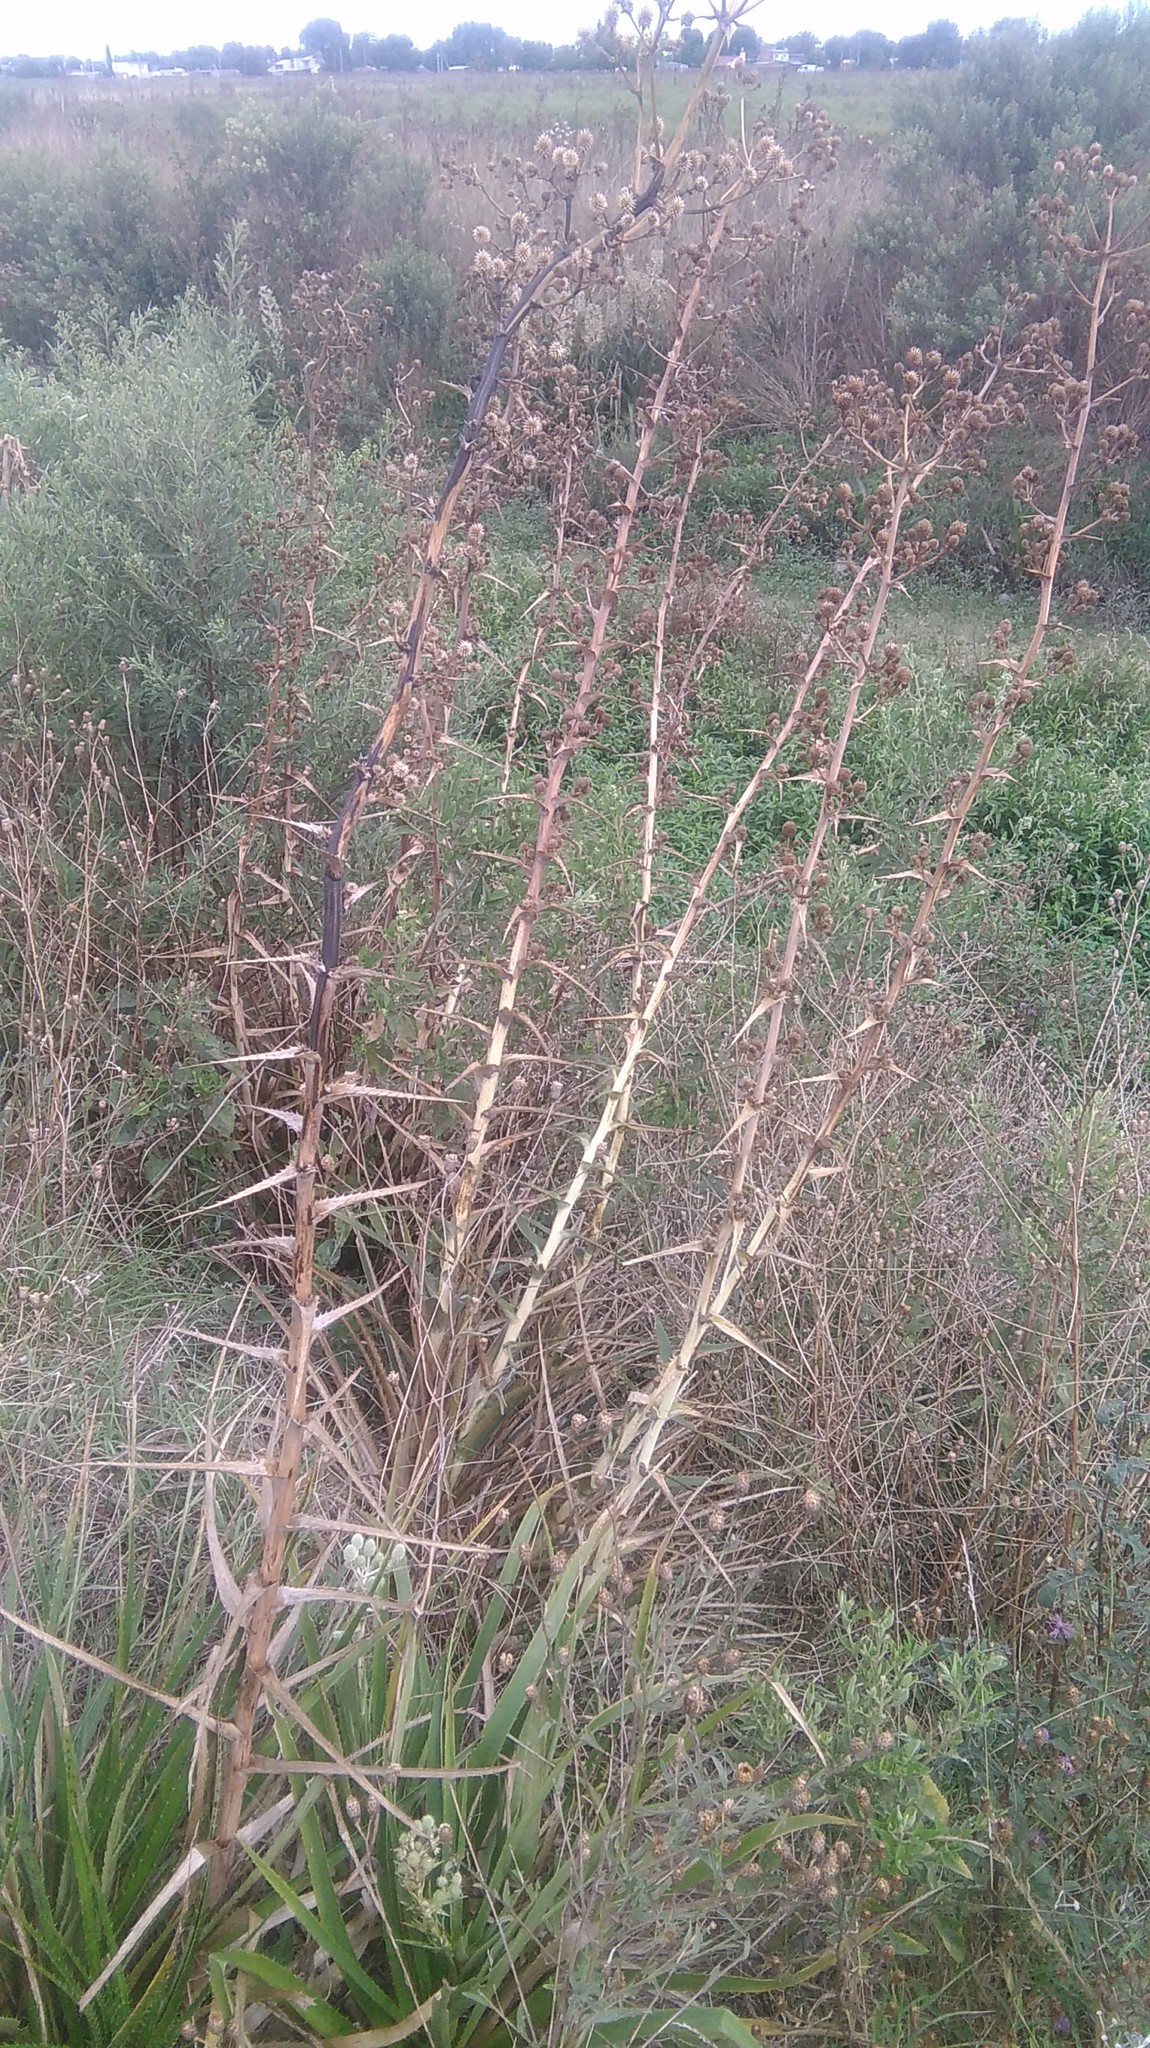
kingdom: Plantae
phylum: Tracheophyta
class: Magnoliopsida
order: Apiales
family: Apiaceae
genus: Eryngium
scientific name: Eryngium horridum
